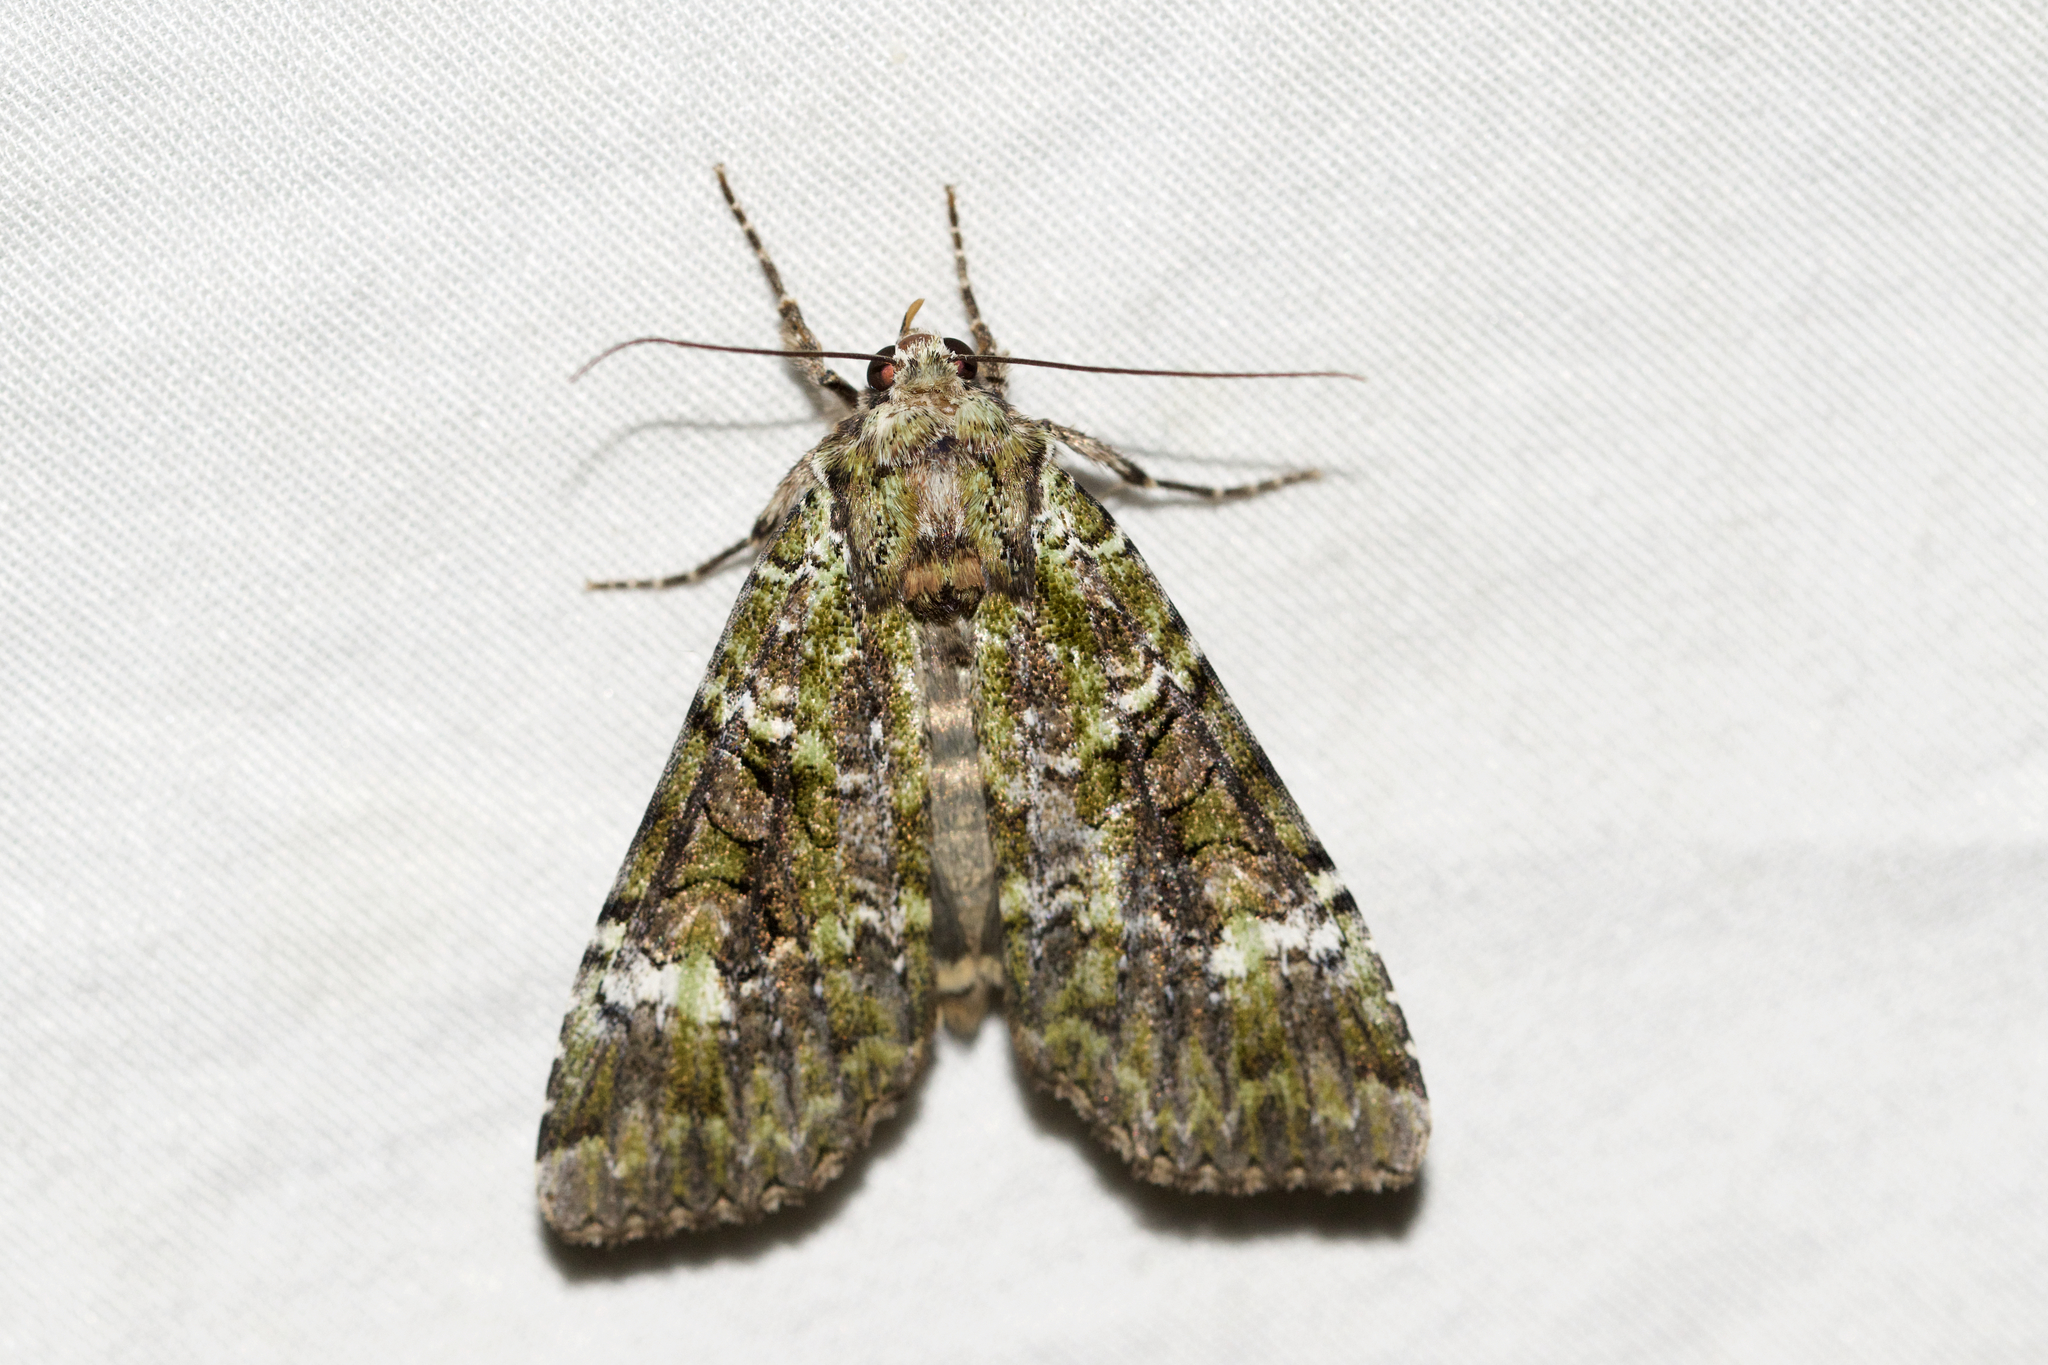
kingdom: Animalia
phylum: Arthropoda
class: Insecta
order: Lepidoptera
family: Noctuidae
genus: Anaplectoides
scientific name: Anaplectoides prasina
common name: Green arches
